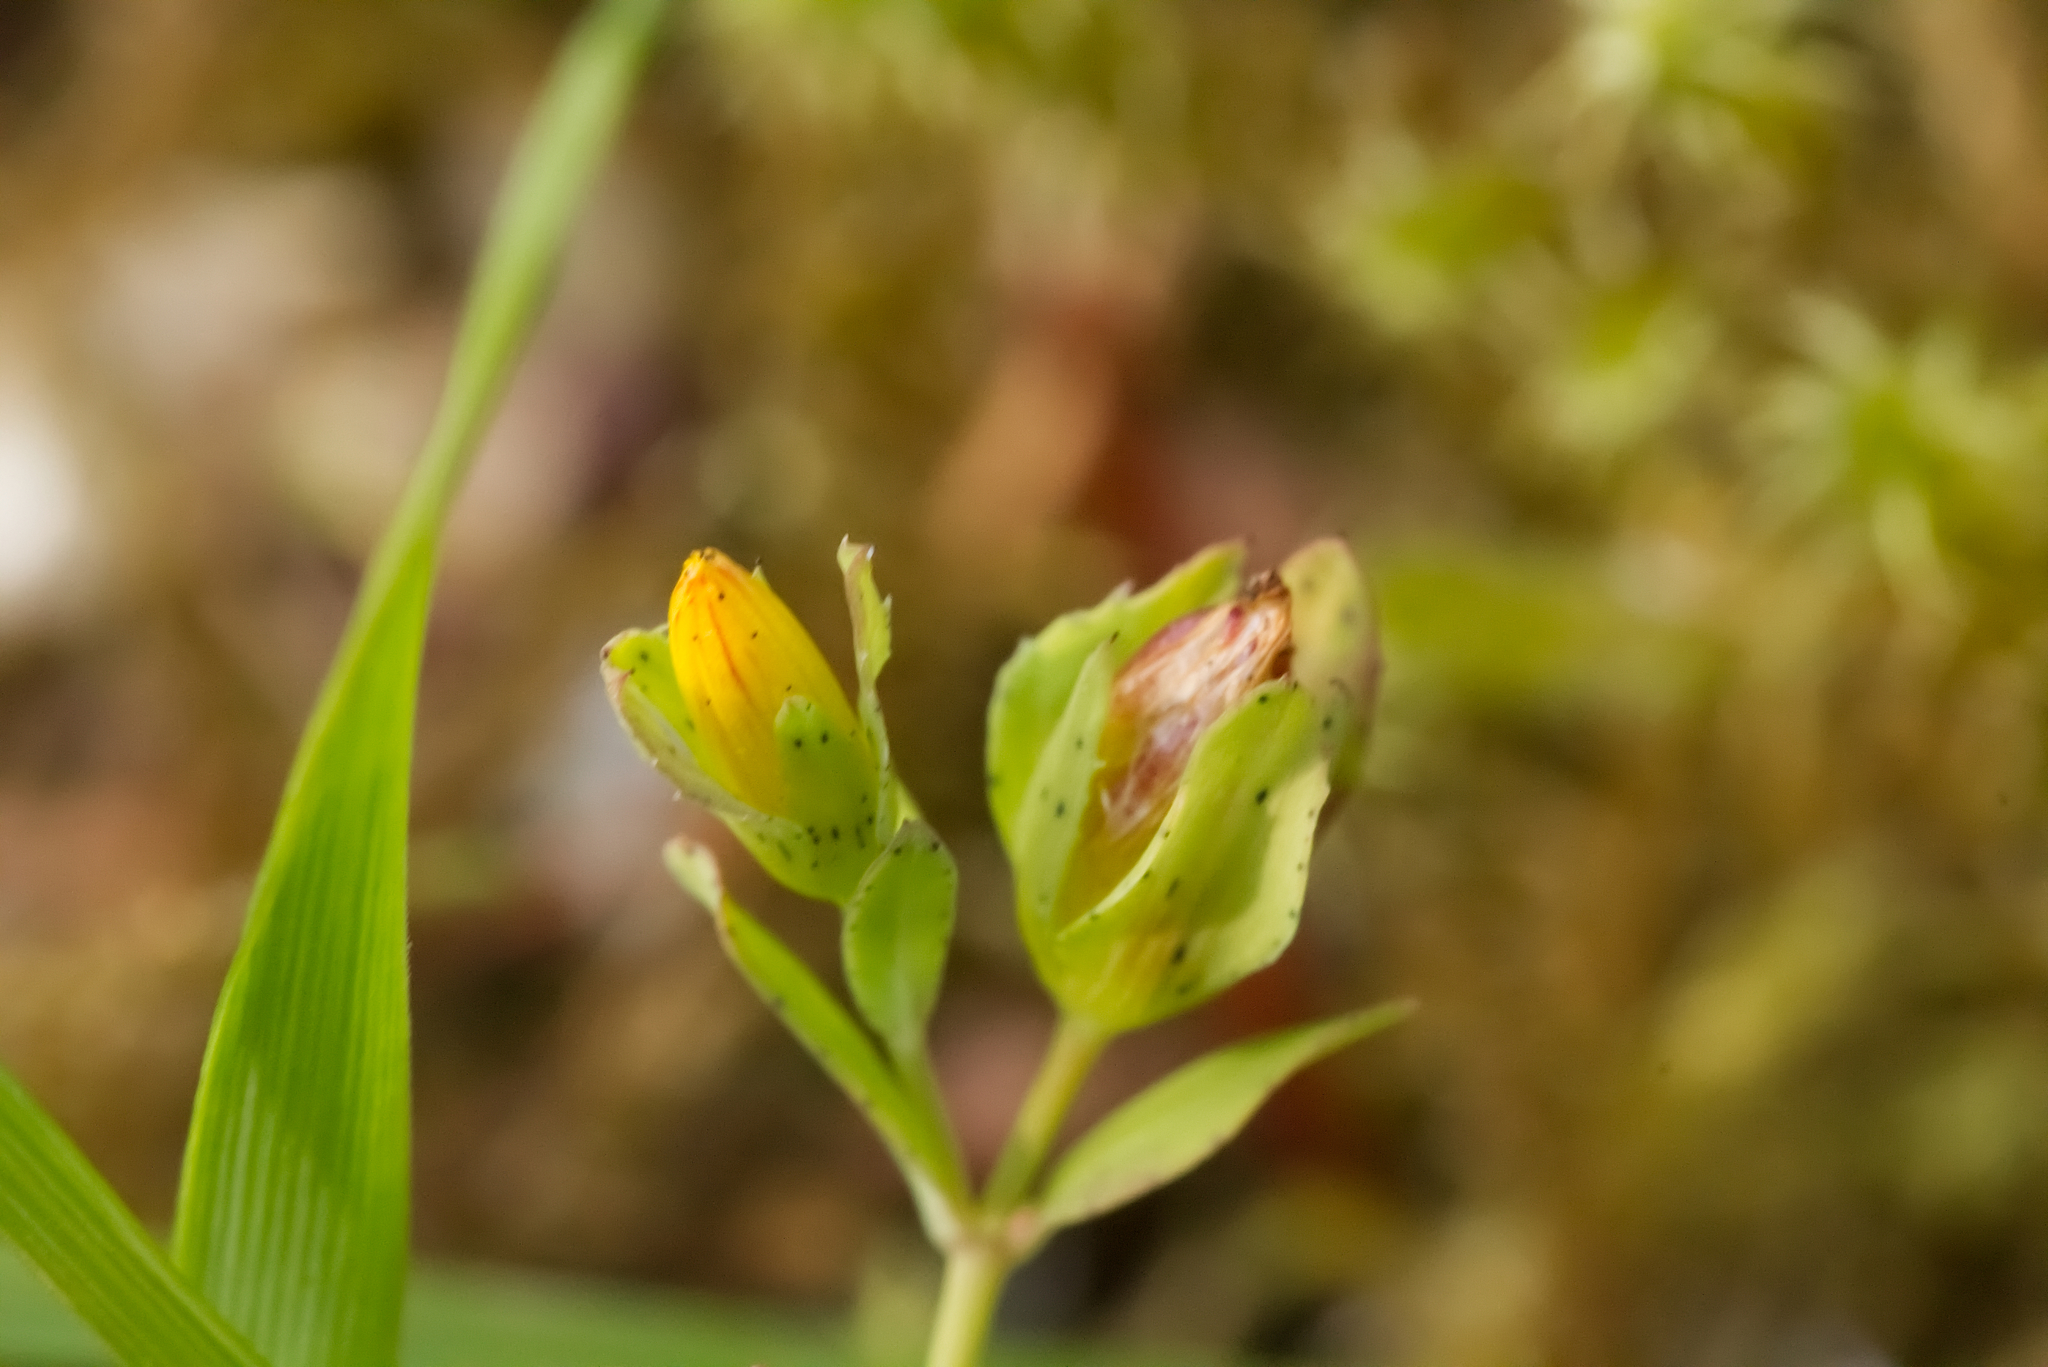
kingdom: Plantae
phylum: Tracheophyta
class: Magnoliopsida
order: Malpighiales
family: Hypericaceae
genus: Hypericum
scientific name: Hypericum humifusum
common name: Trailing st. john's-wort
